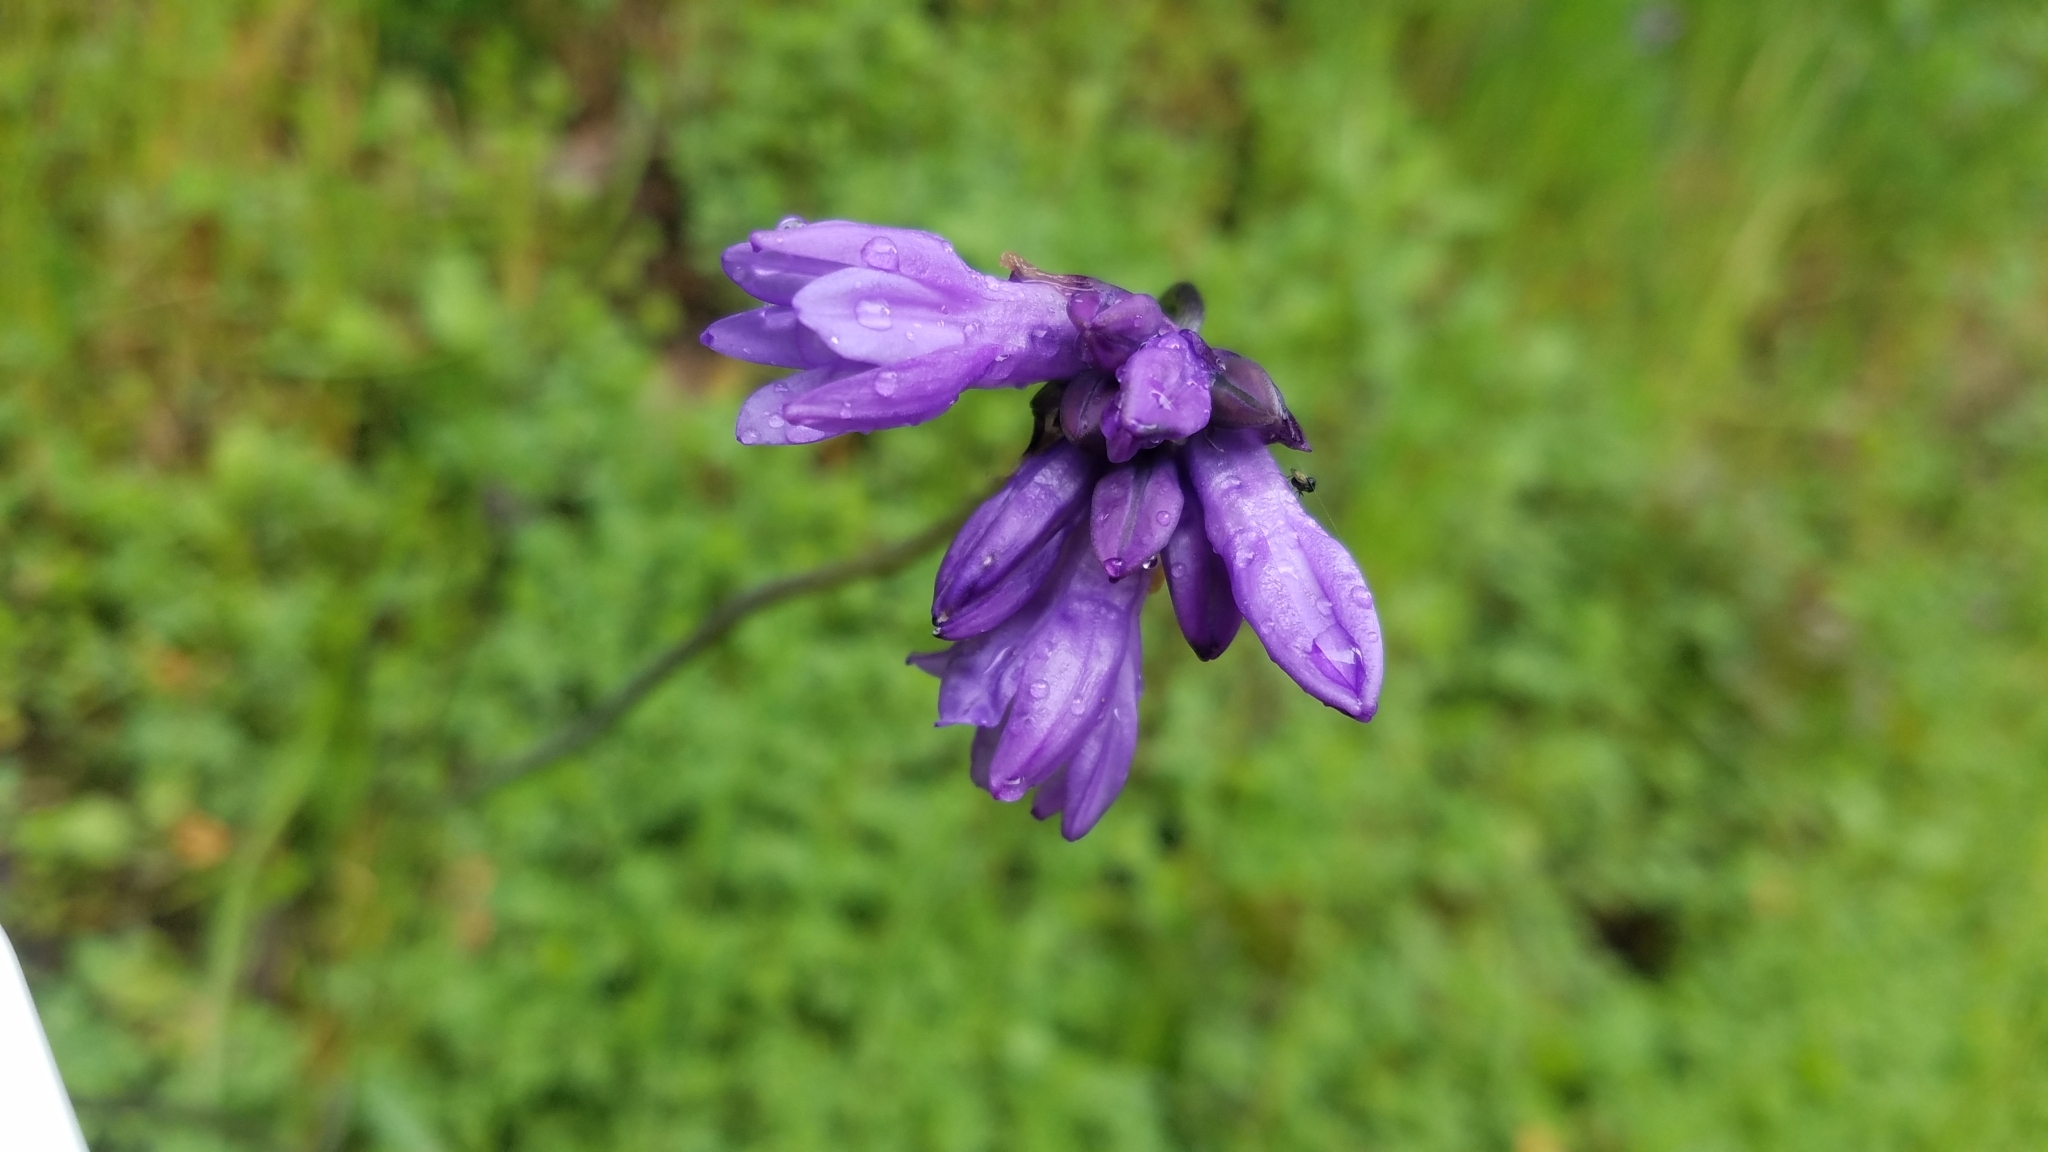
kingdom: Plantae
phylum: Tracheophyta
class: Liliopsida
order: Asparagales
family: Asparagaceae
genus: Dipterostemon
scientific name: Dipterostemon capitatus
